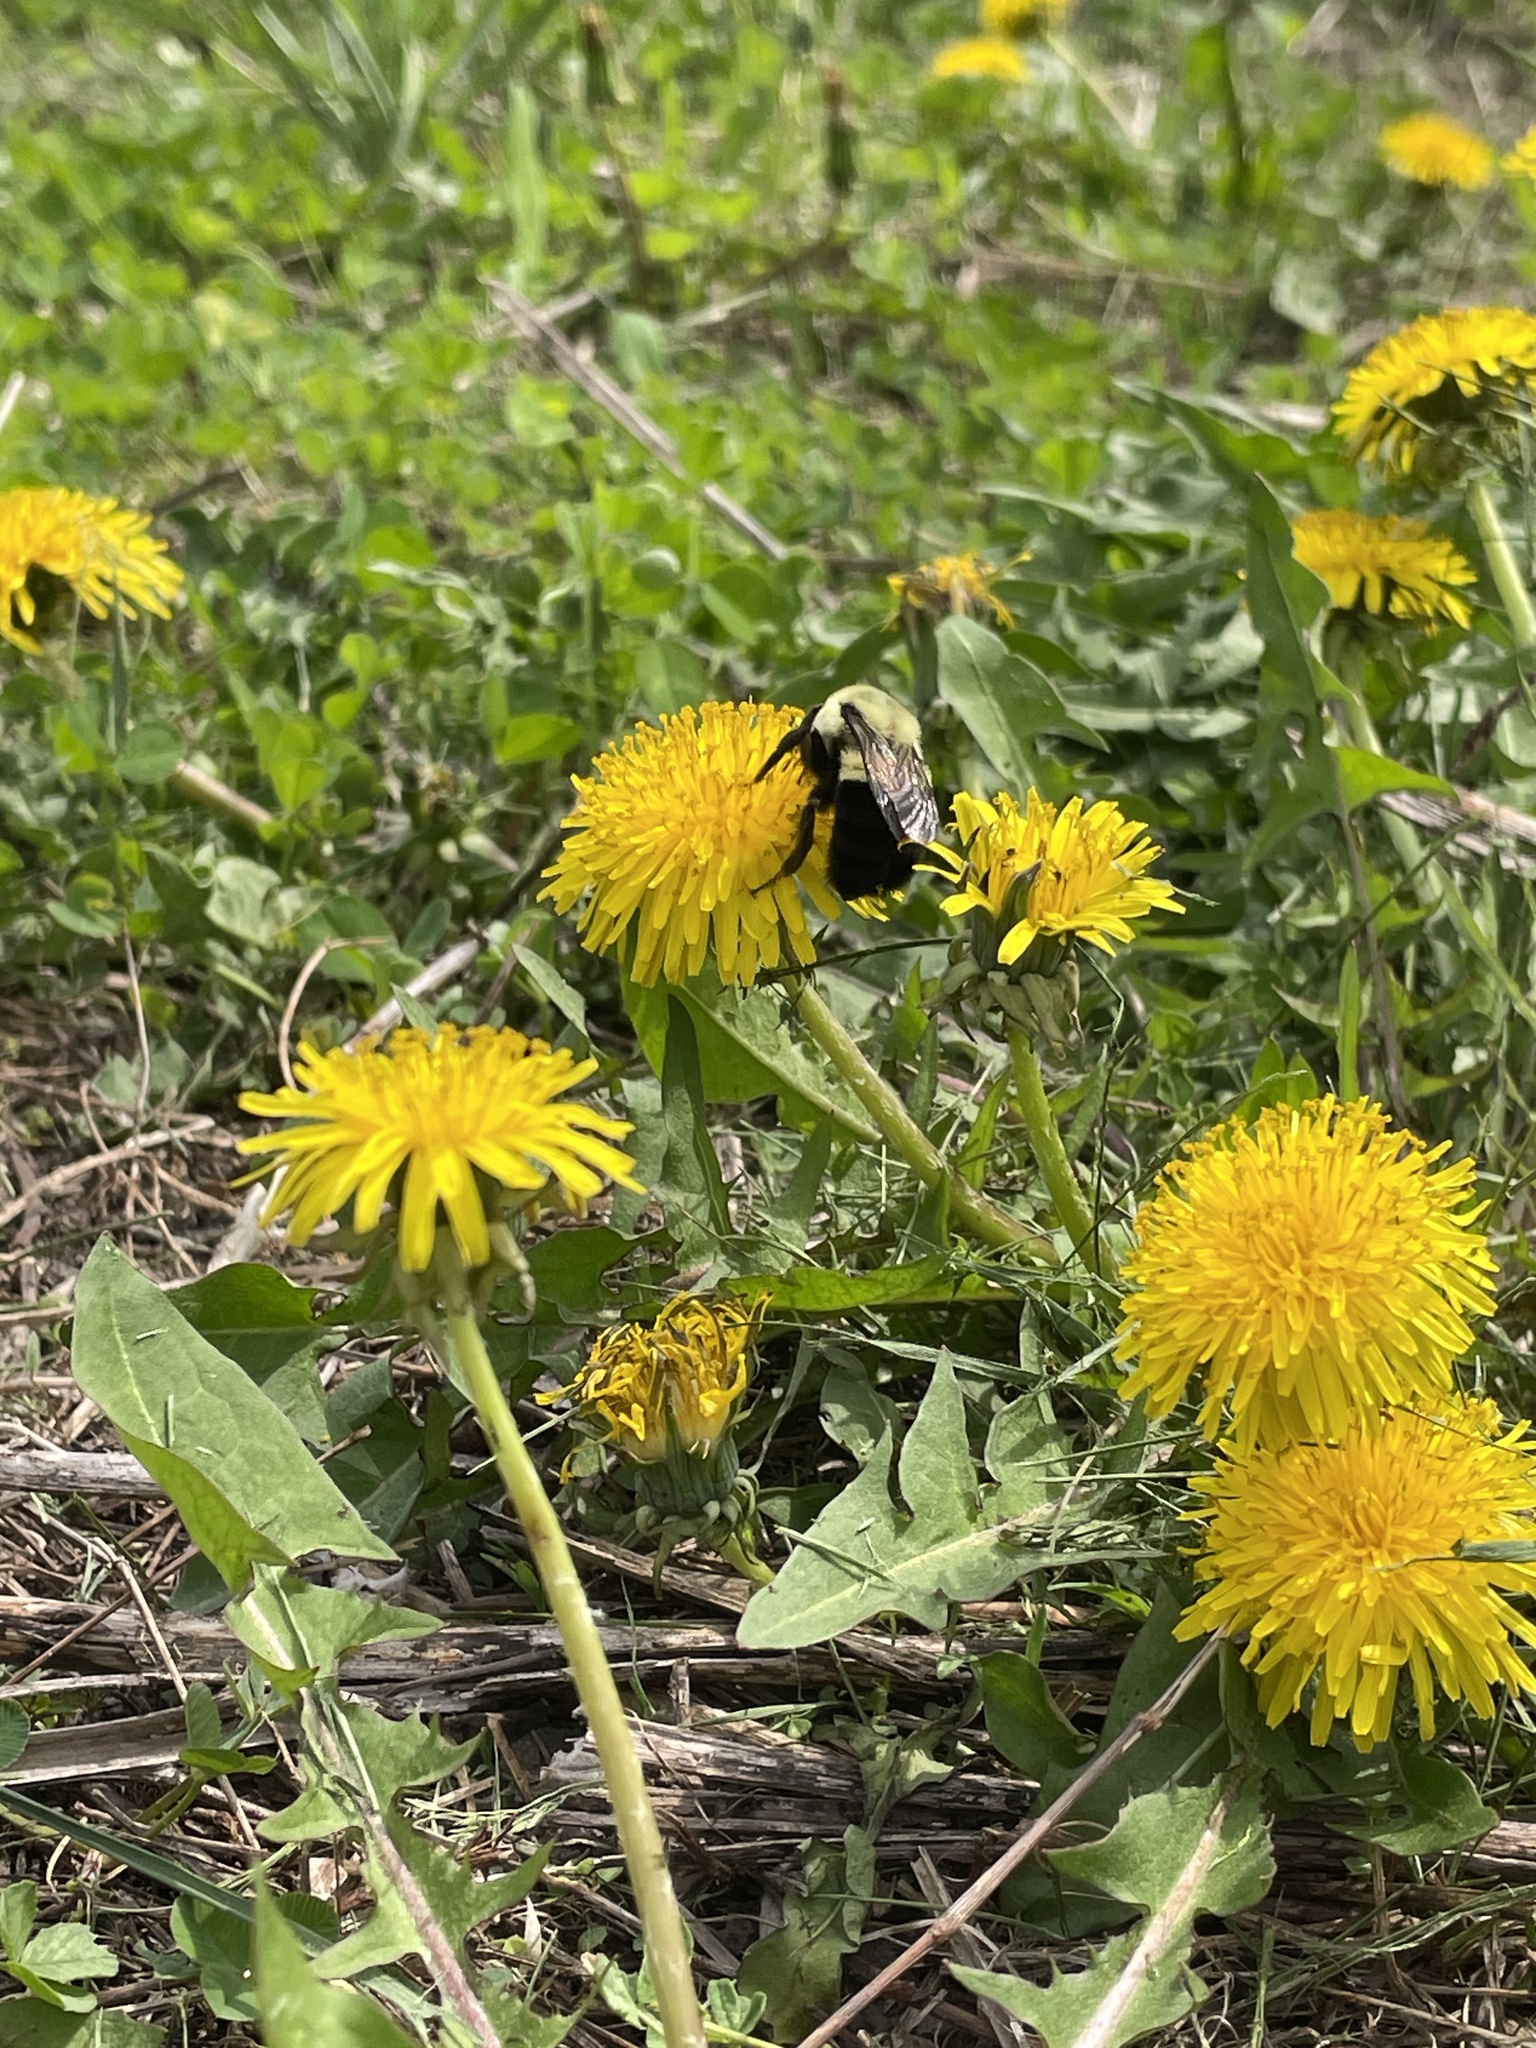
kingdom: Animalia
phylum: Arthropoda
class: Insecta
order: Hymenoptera
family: Apidae
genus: Bombus
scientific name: Bombus impatiens
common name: Common eastern bumble bee
